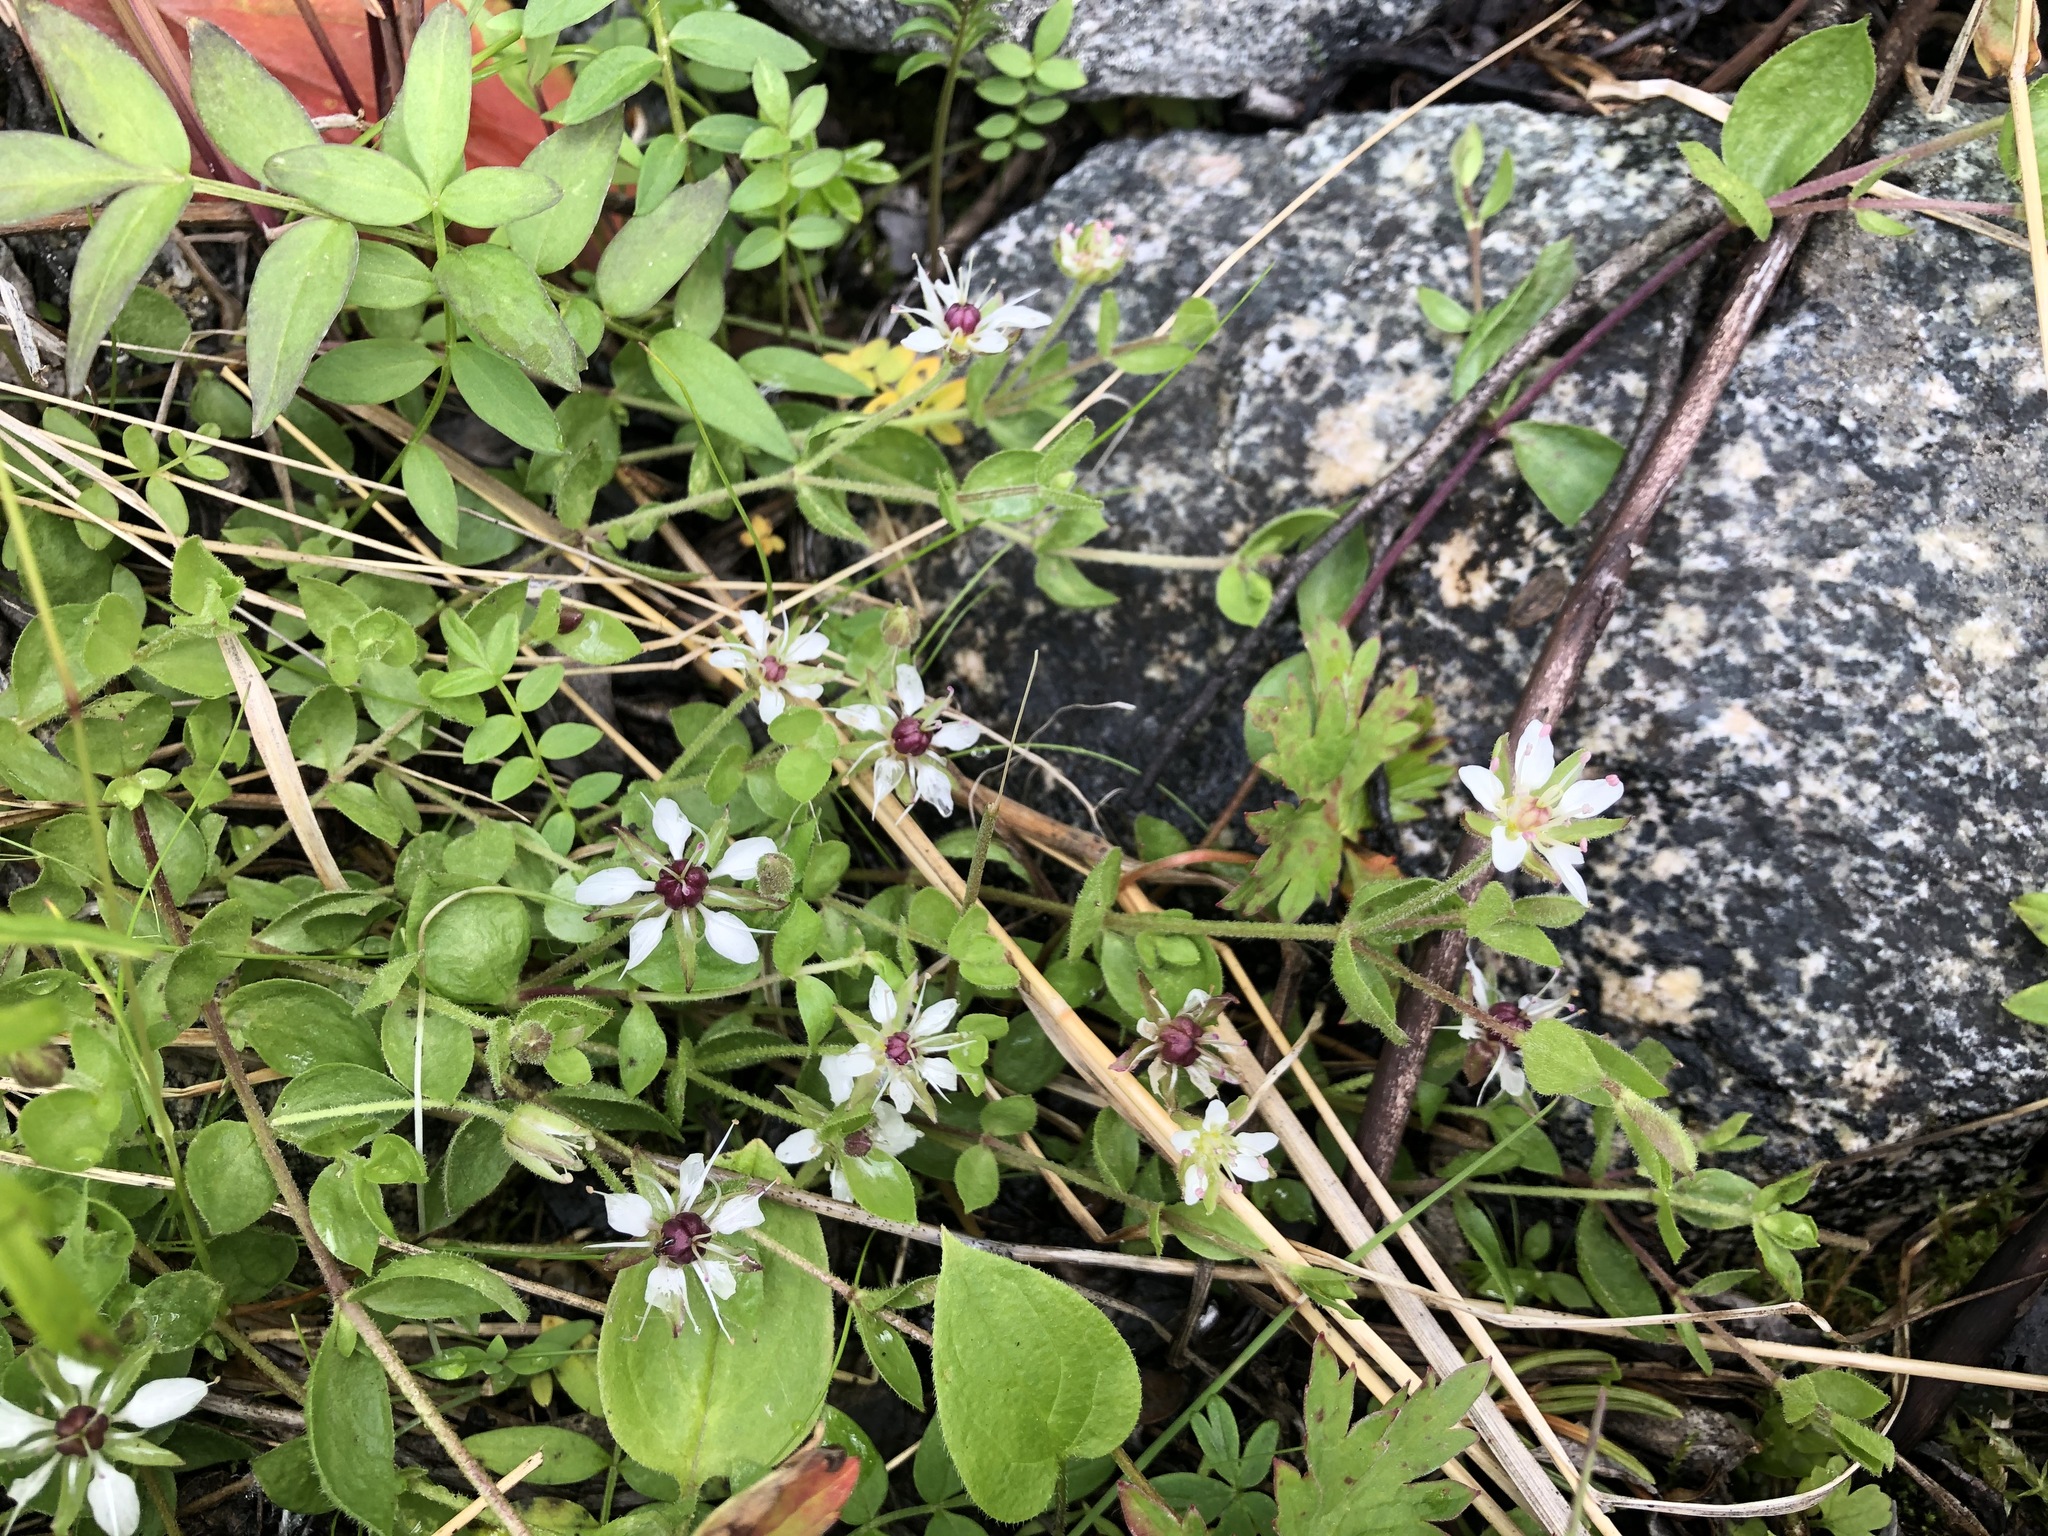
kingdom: Plantae
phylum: Tracheophyta
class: Magnoliopsida
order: Caryophyllales
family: Caryophyllaceae
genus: Wilhelmsia
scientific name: Wilhelmsia physodes
